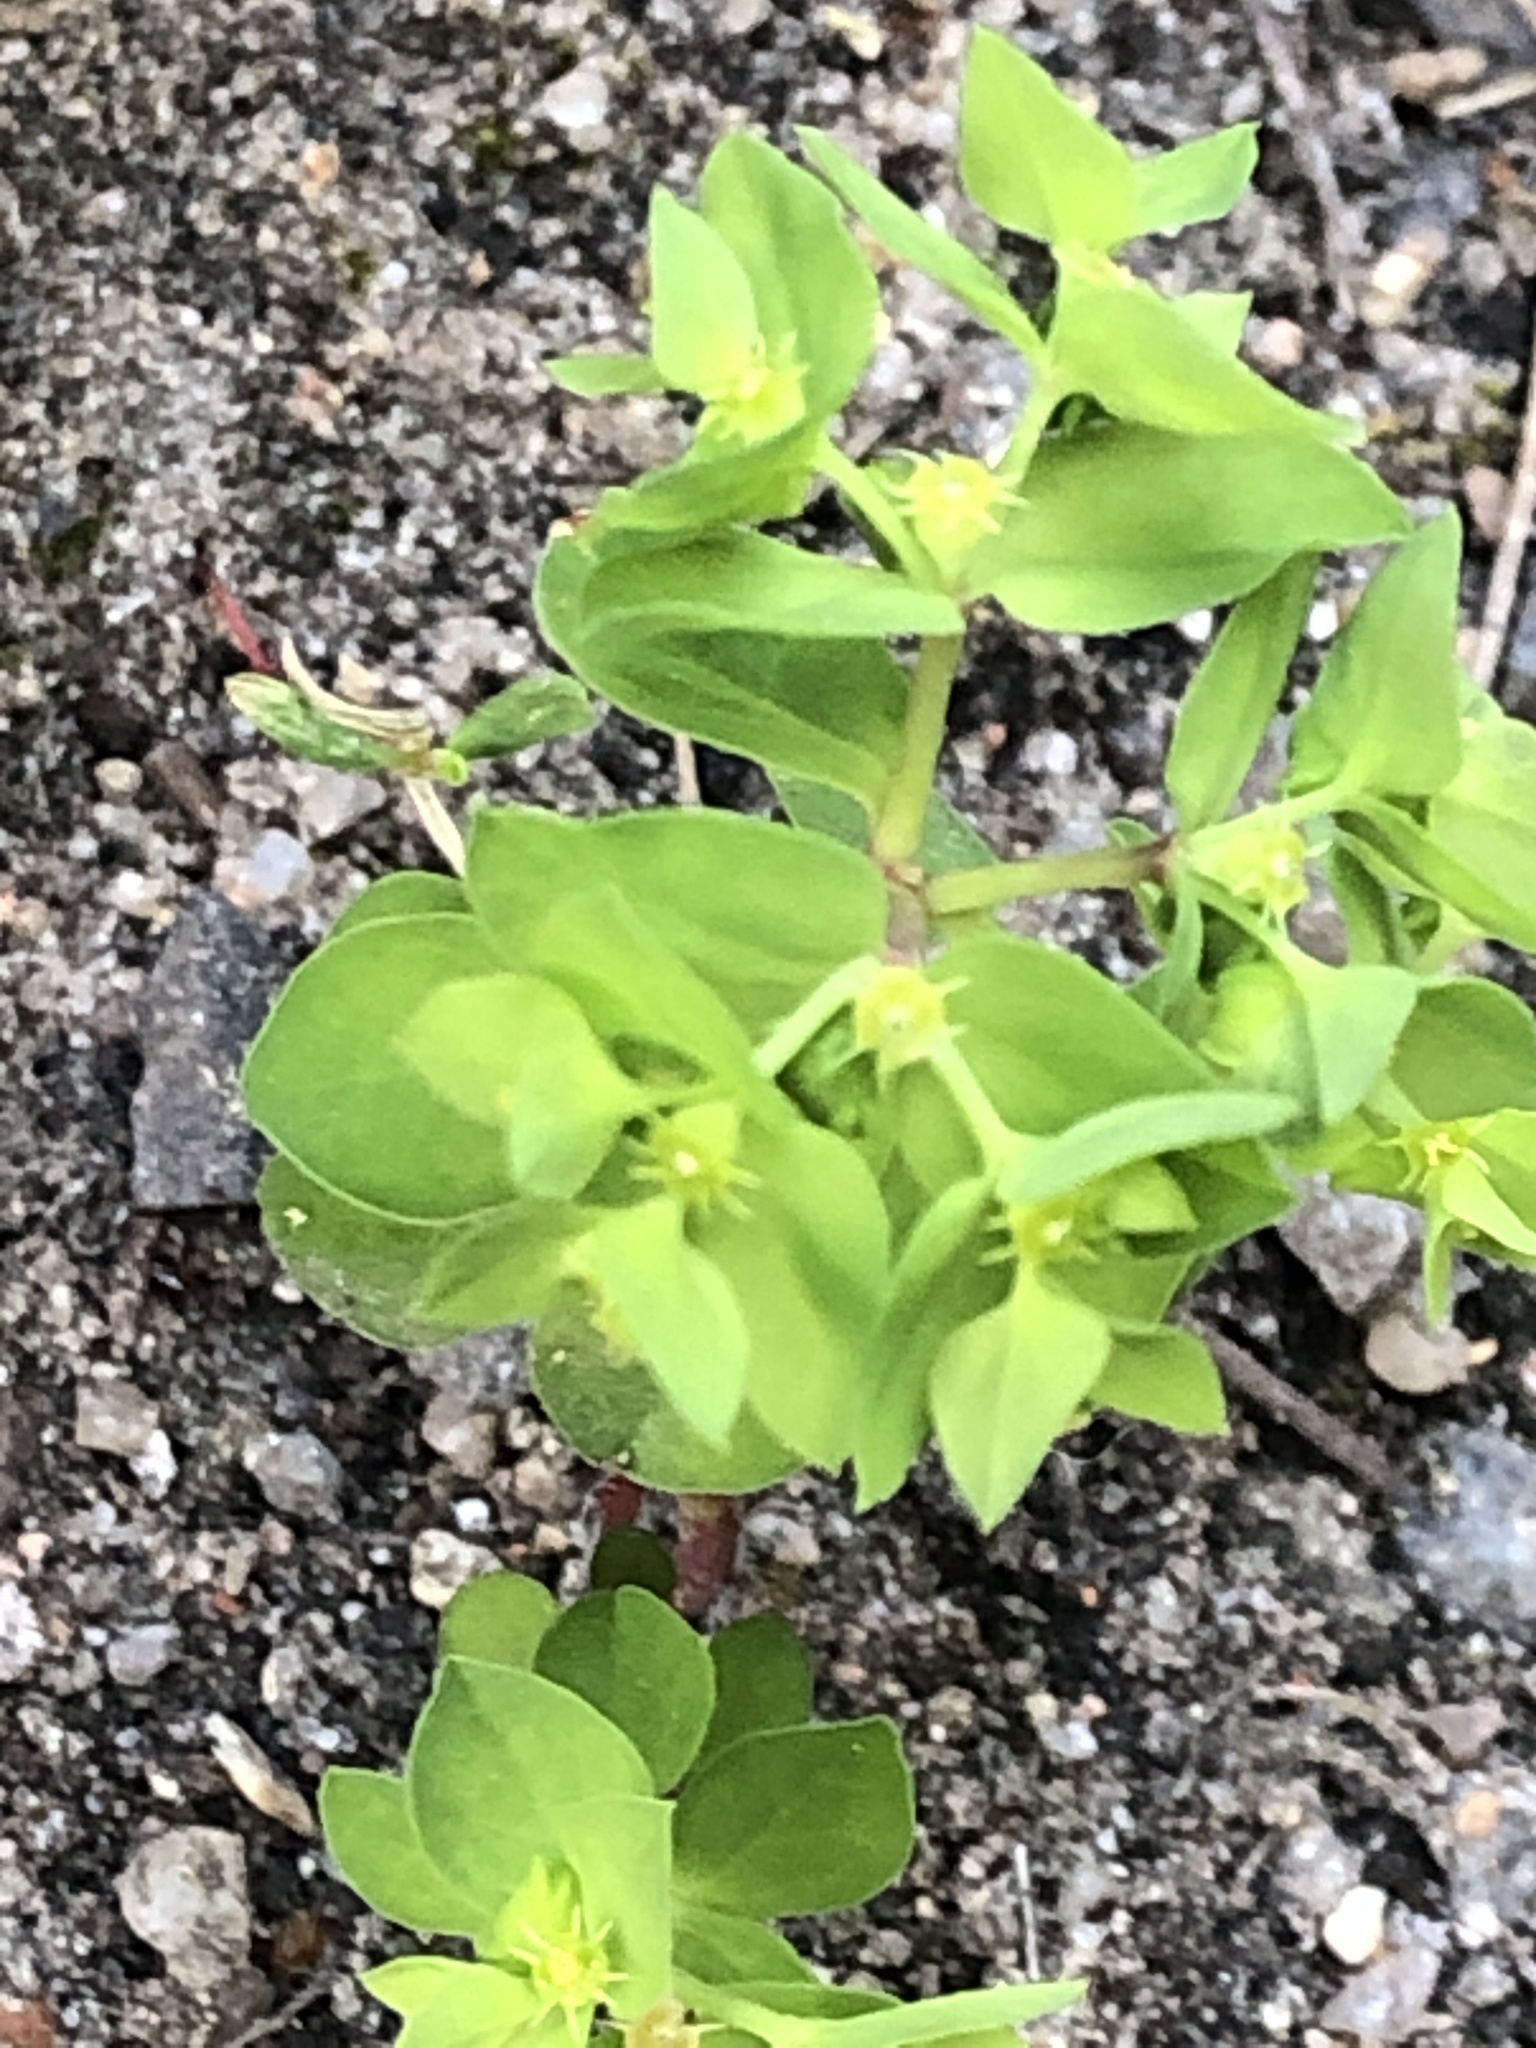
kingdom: Plantae
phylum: Tracheophyta
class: Magnoliopsida
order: Malpighiales
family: Euphorbiaceae
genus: Euphorbia
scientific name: Euphorbia peplus
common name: Petty spurge
